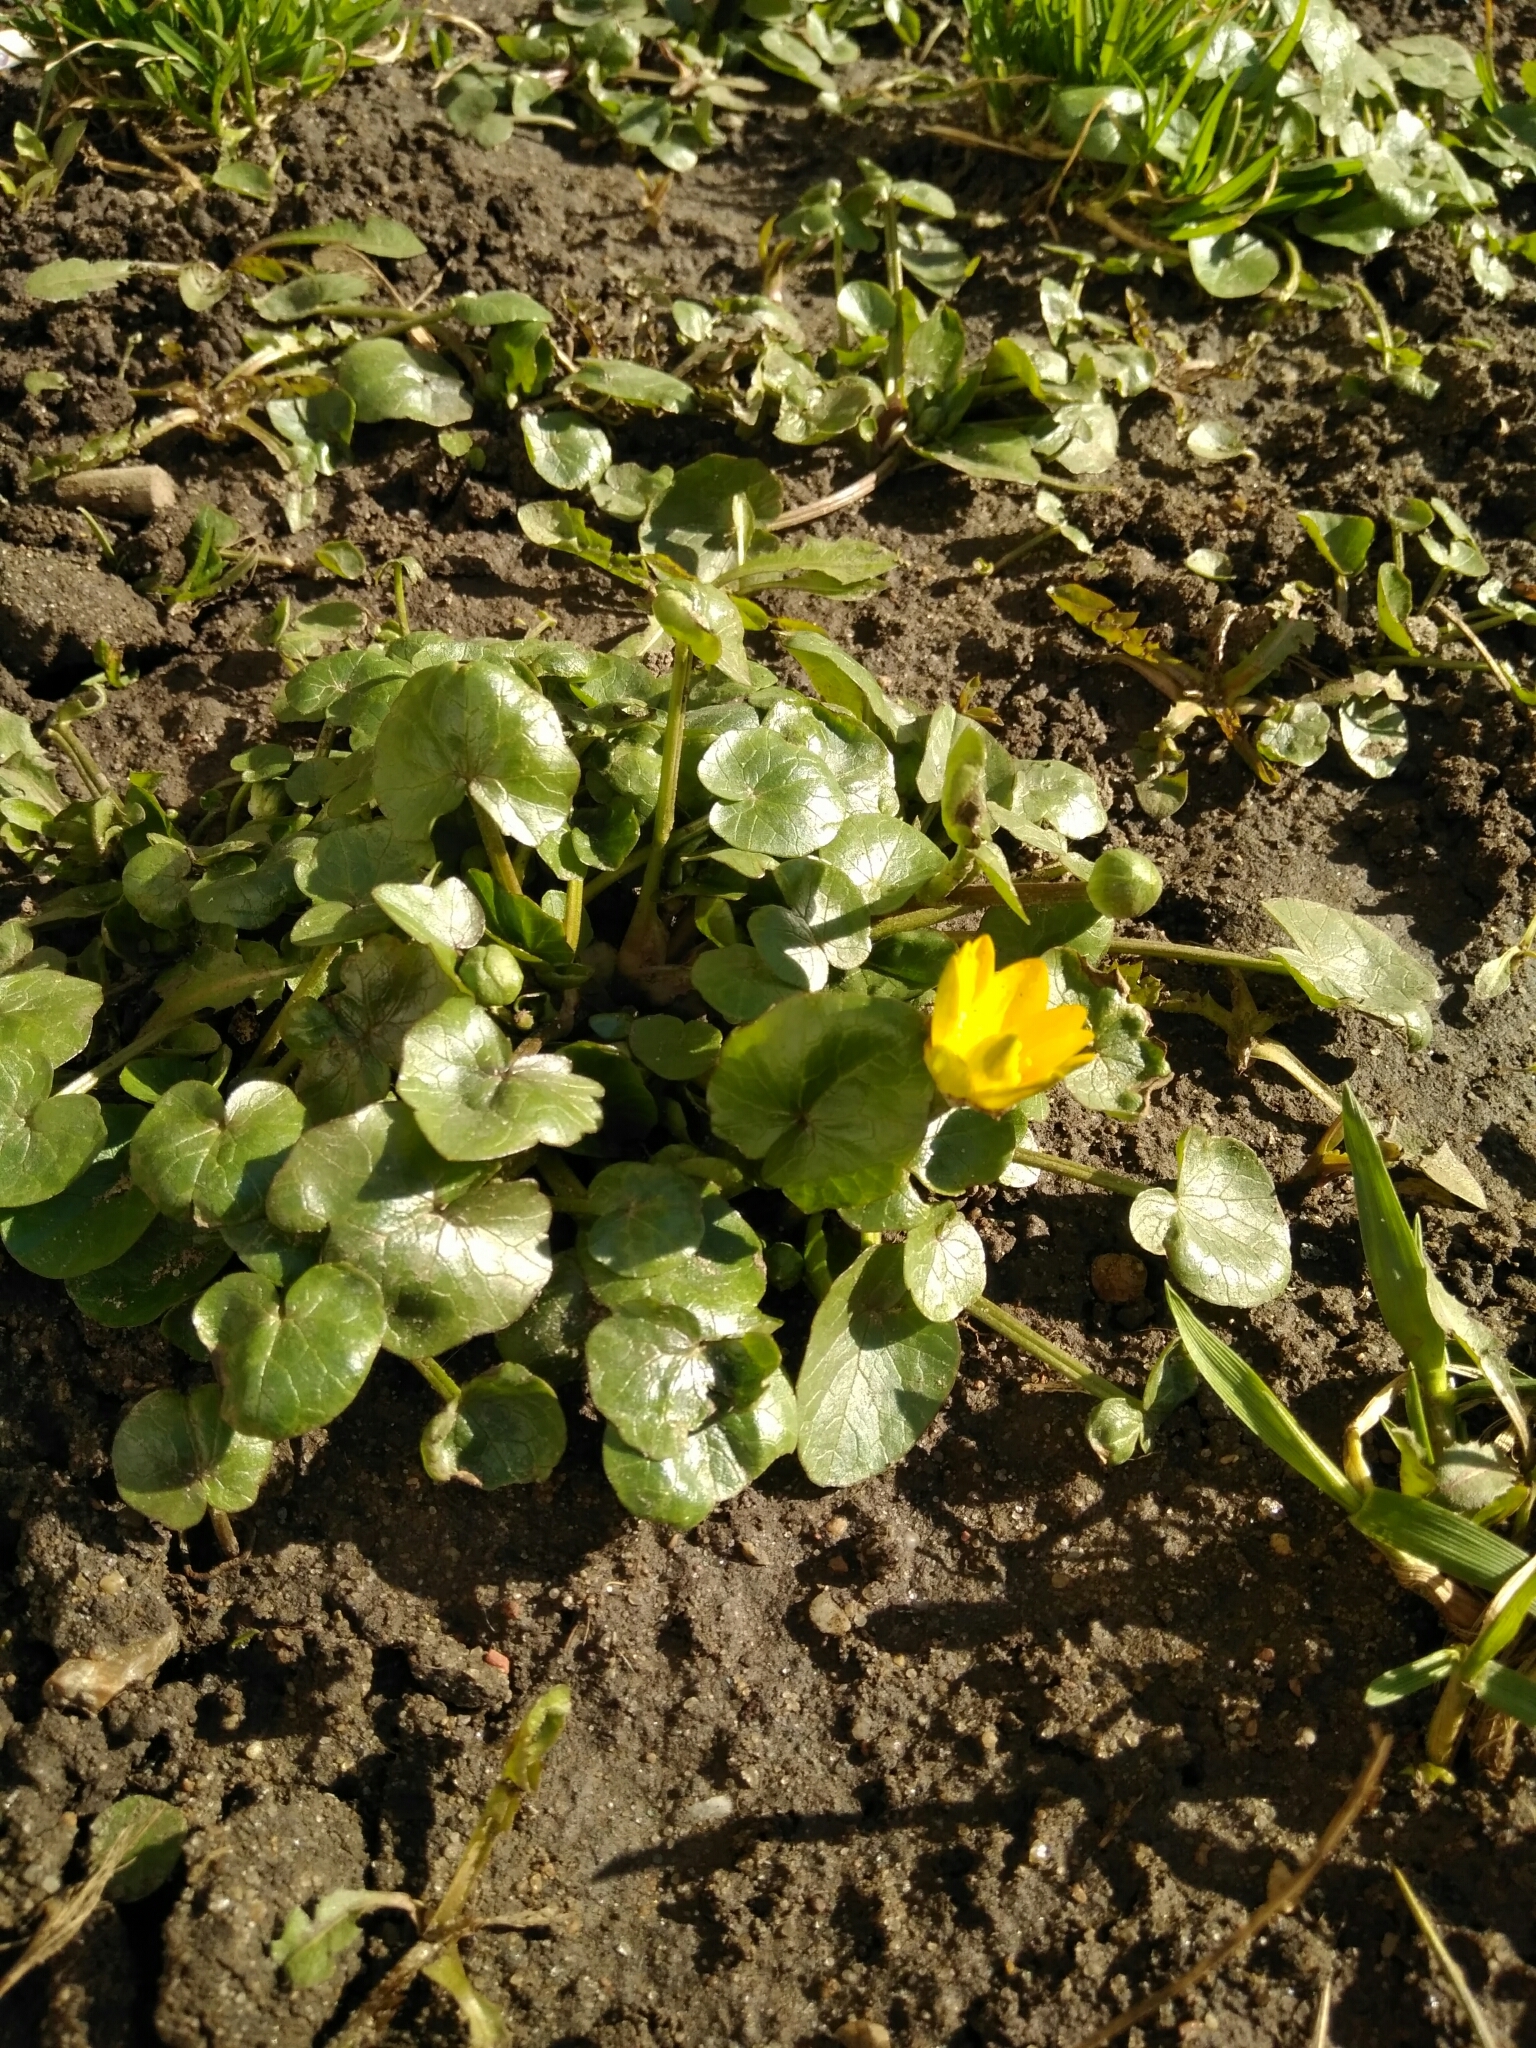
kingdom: Plantae
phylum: Tracheophyta
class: Magnoliopsida
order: Ranunculales
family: Ranunculaceae
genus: Ficaria
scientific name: Ficaria verna
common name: Lesser celandine
